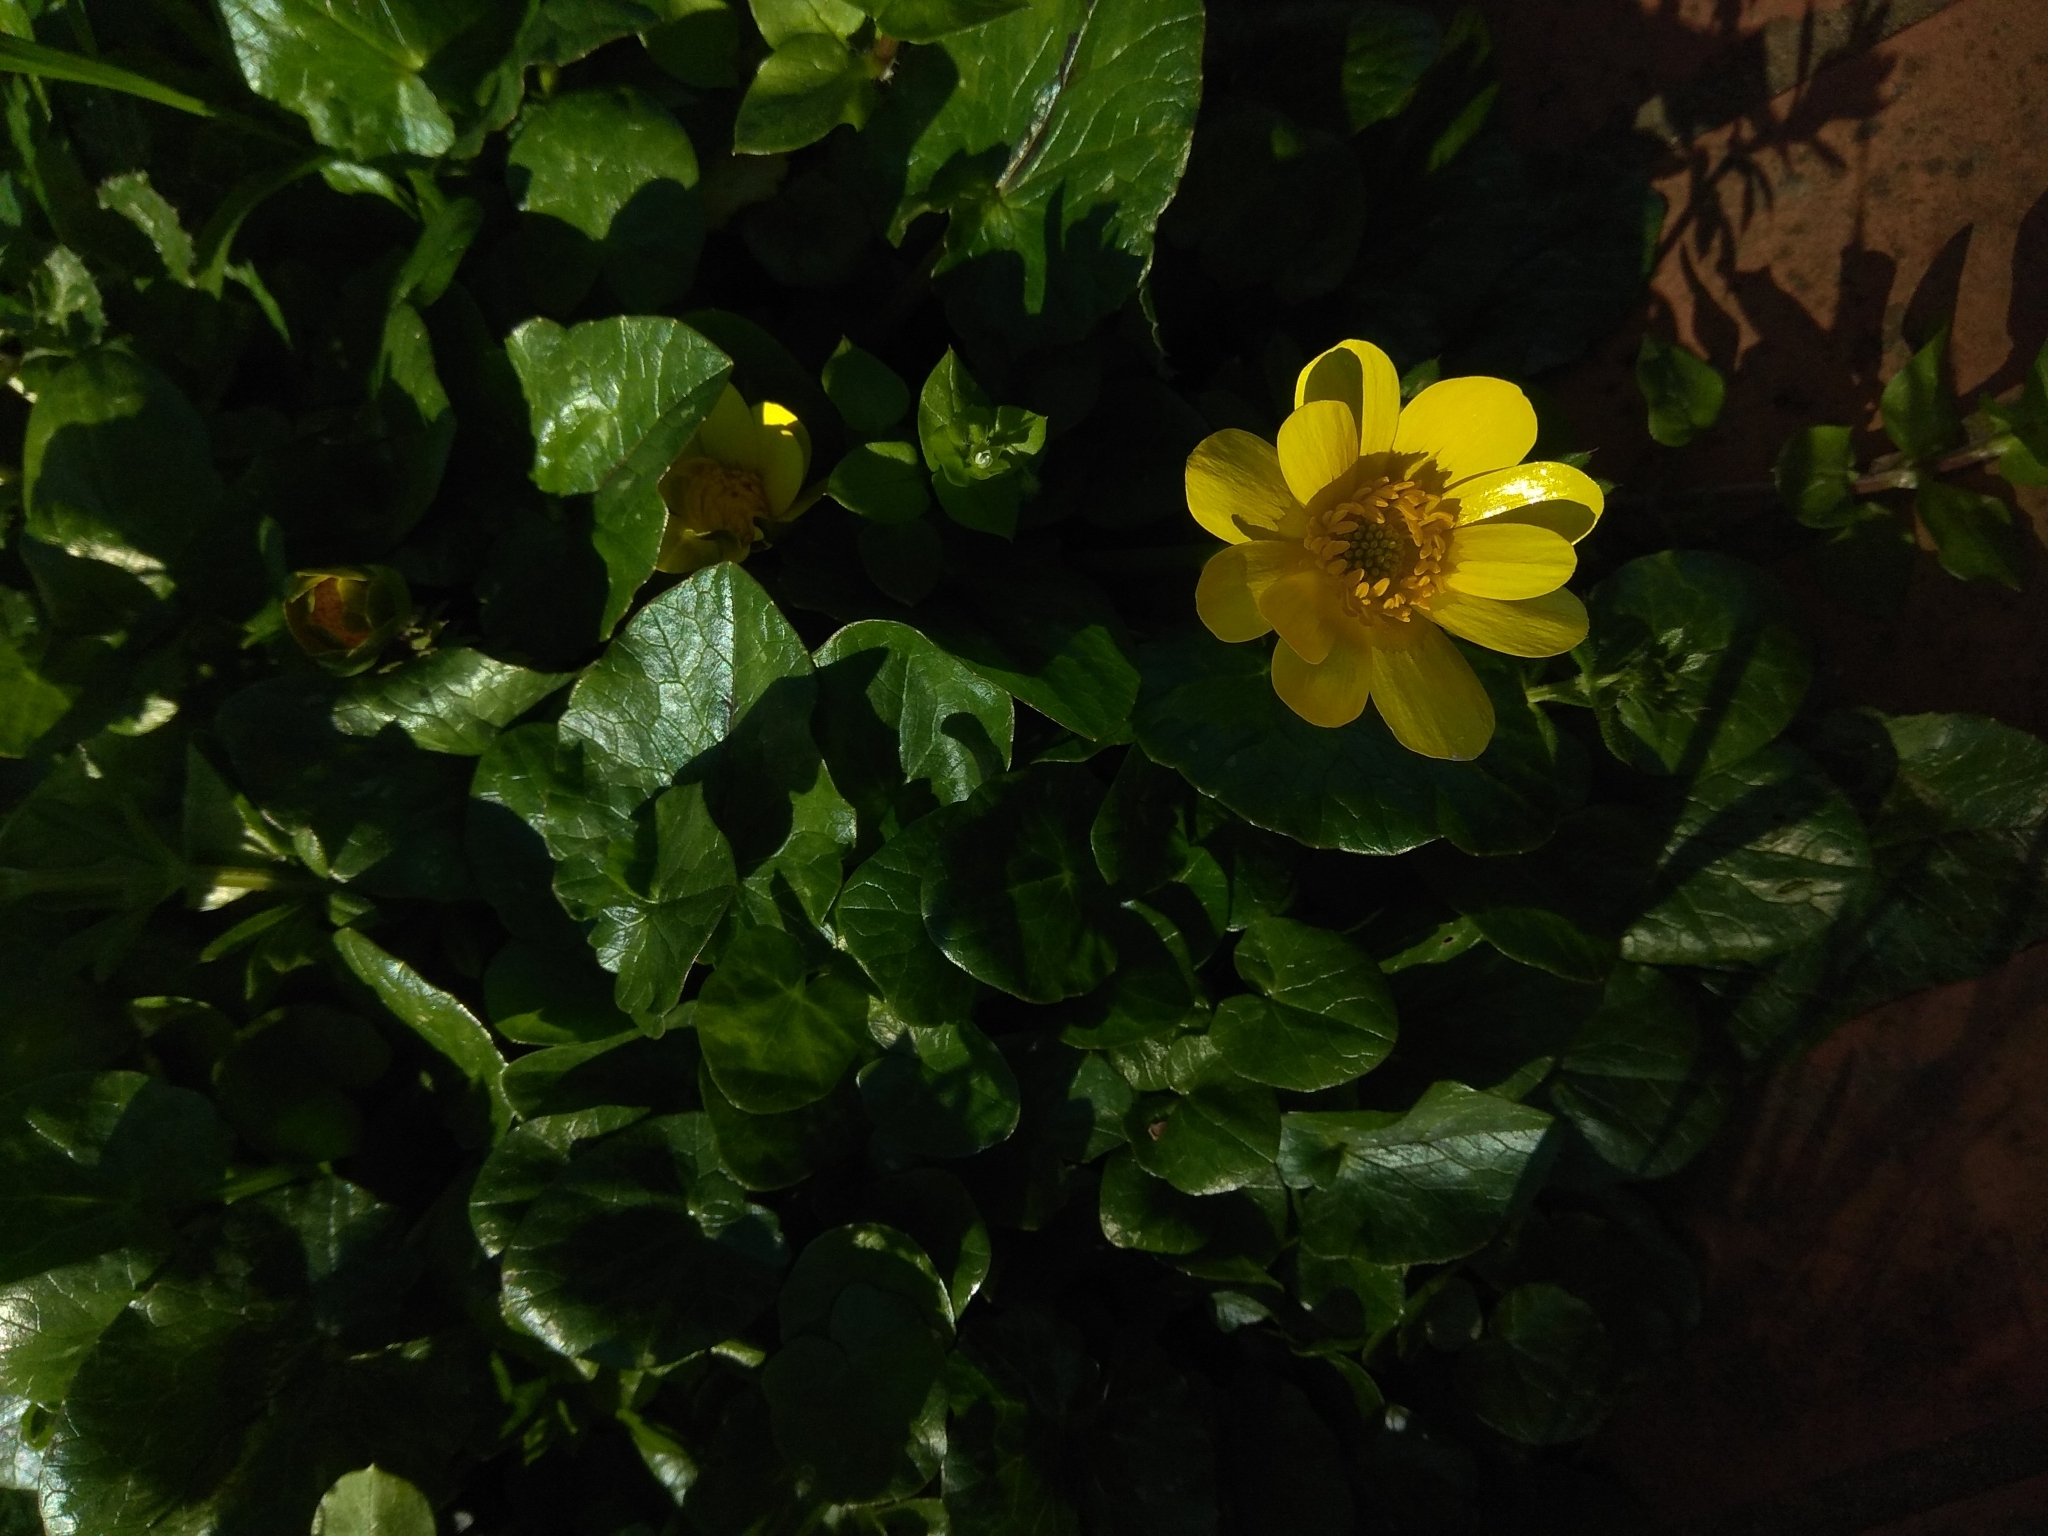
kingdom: Plantae
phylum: Tracheophyta
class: Magnoliopsida
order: Ranunculales
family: Ranunculaceae
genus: Ficaria
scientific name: Ficaria verna
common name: Lesser celandine
